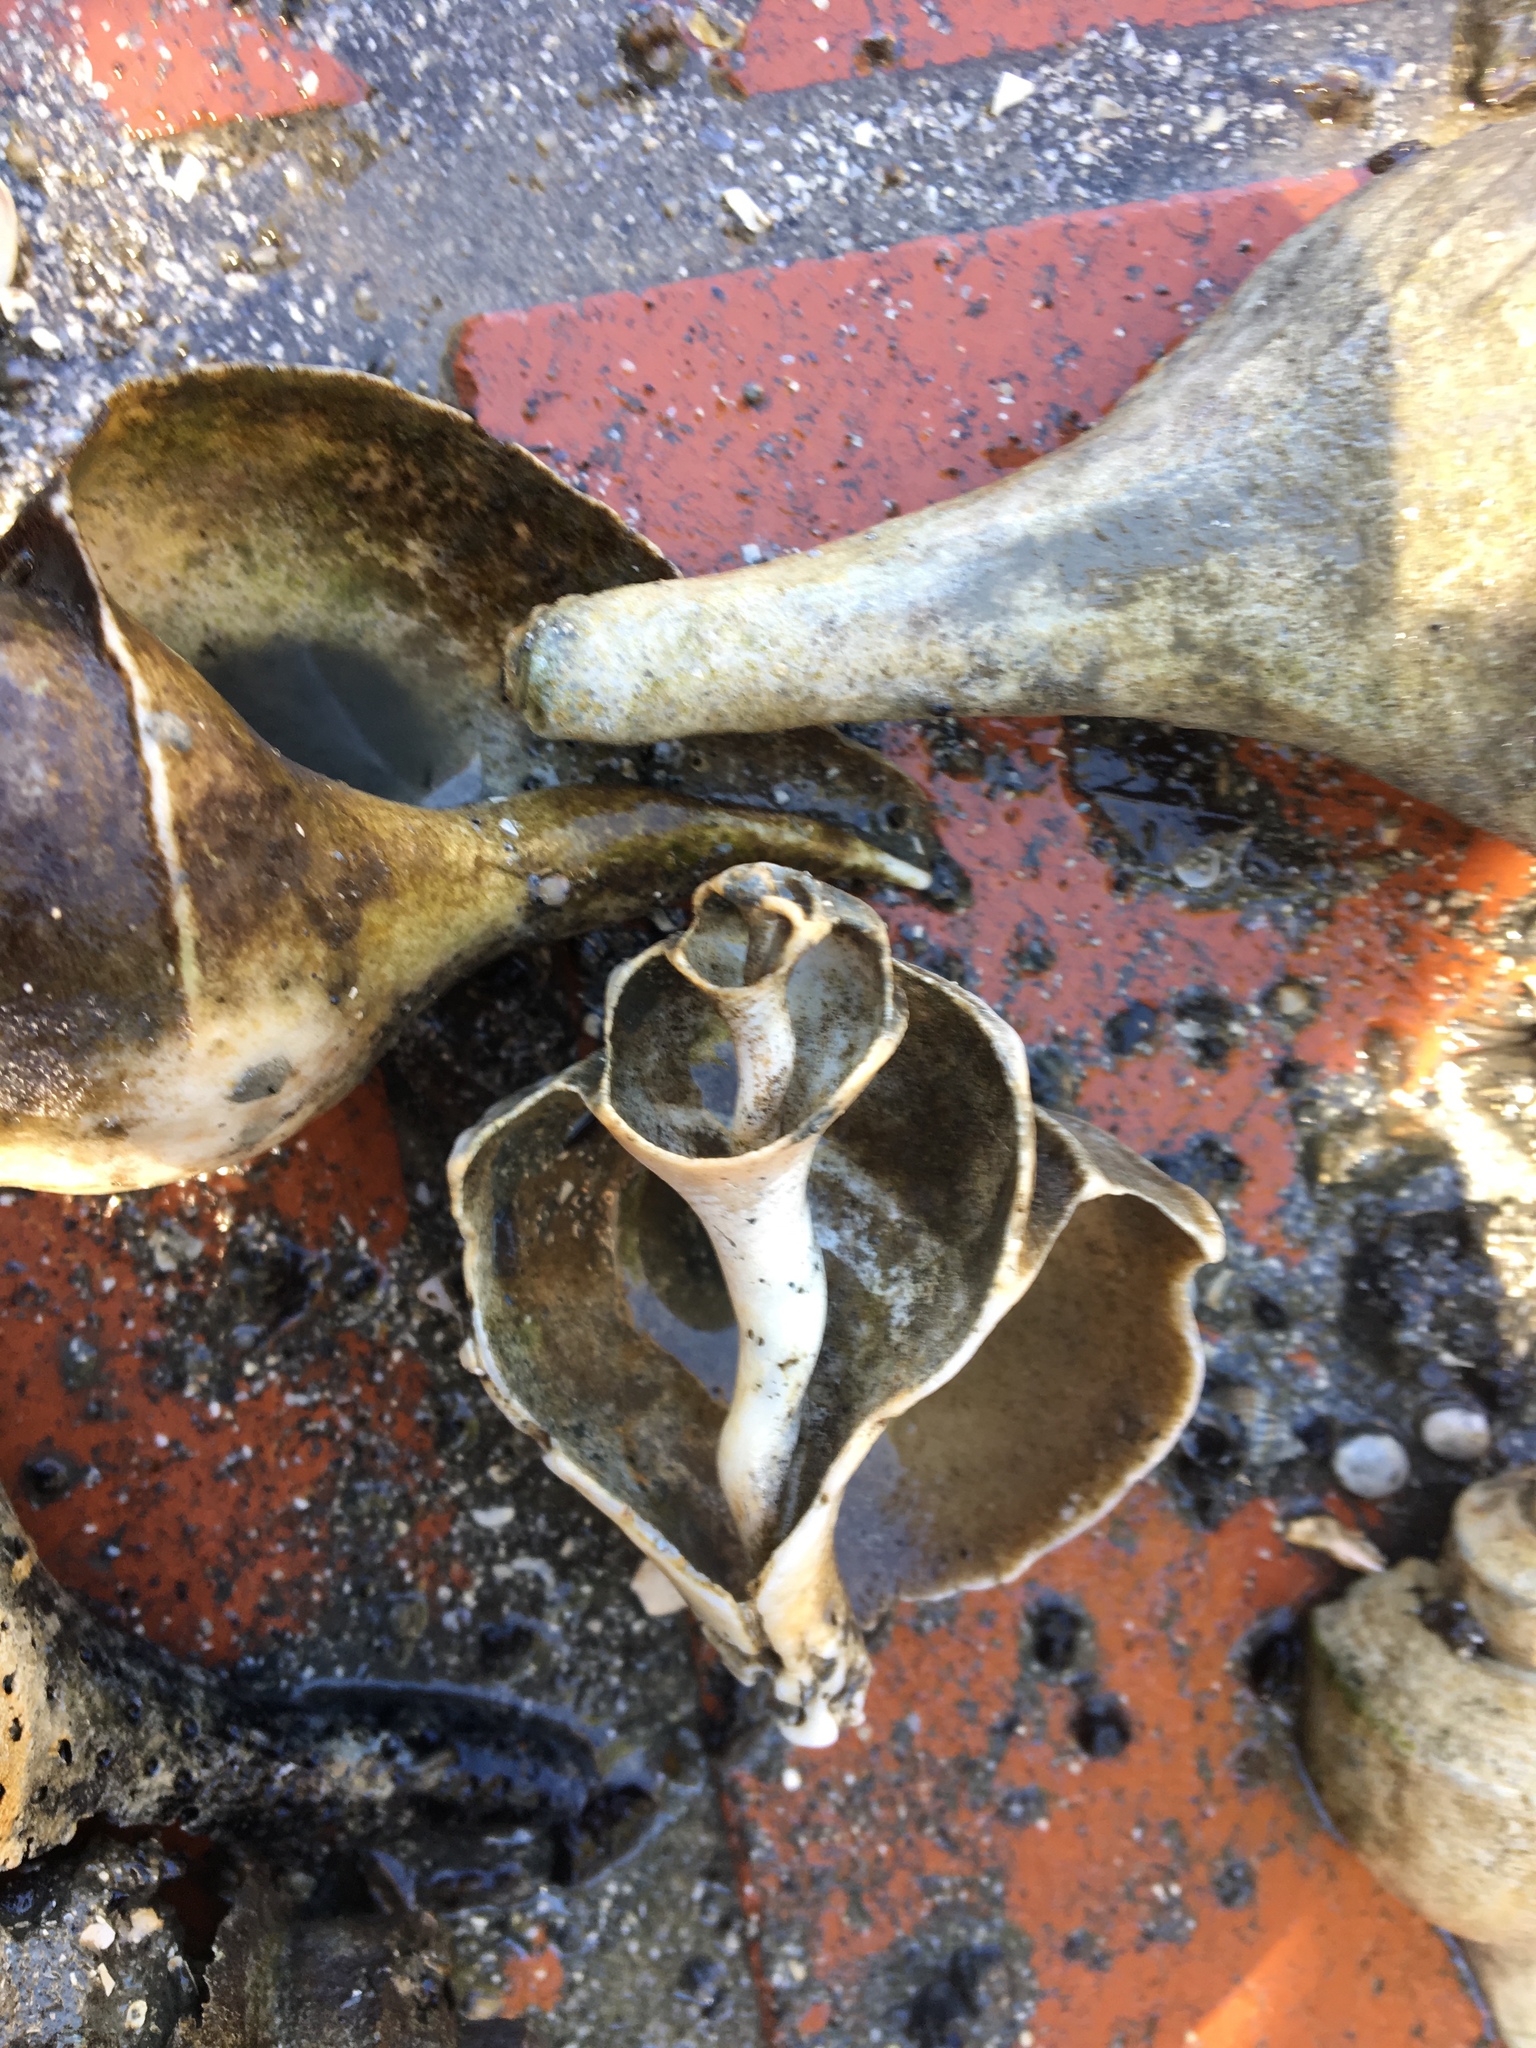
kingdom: Animalia
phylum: Mollusca
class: Gastropoda
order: Neogastropoda
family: Busyconidae
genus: Busycotypus
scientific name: Busycotypus canaliculatus
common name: Channeled whelk
